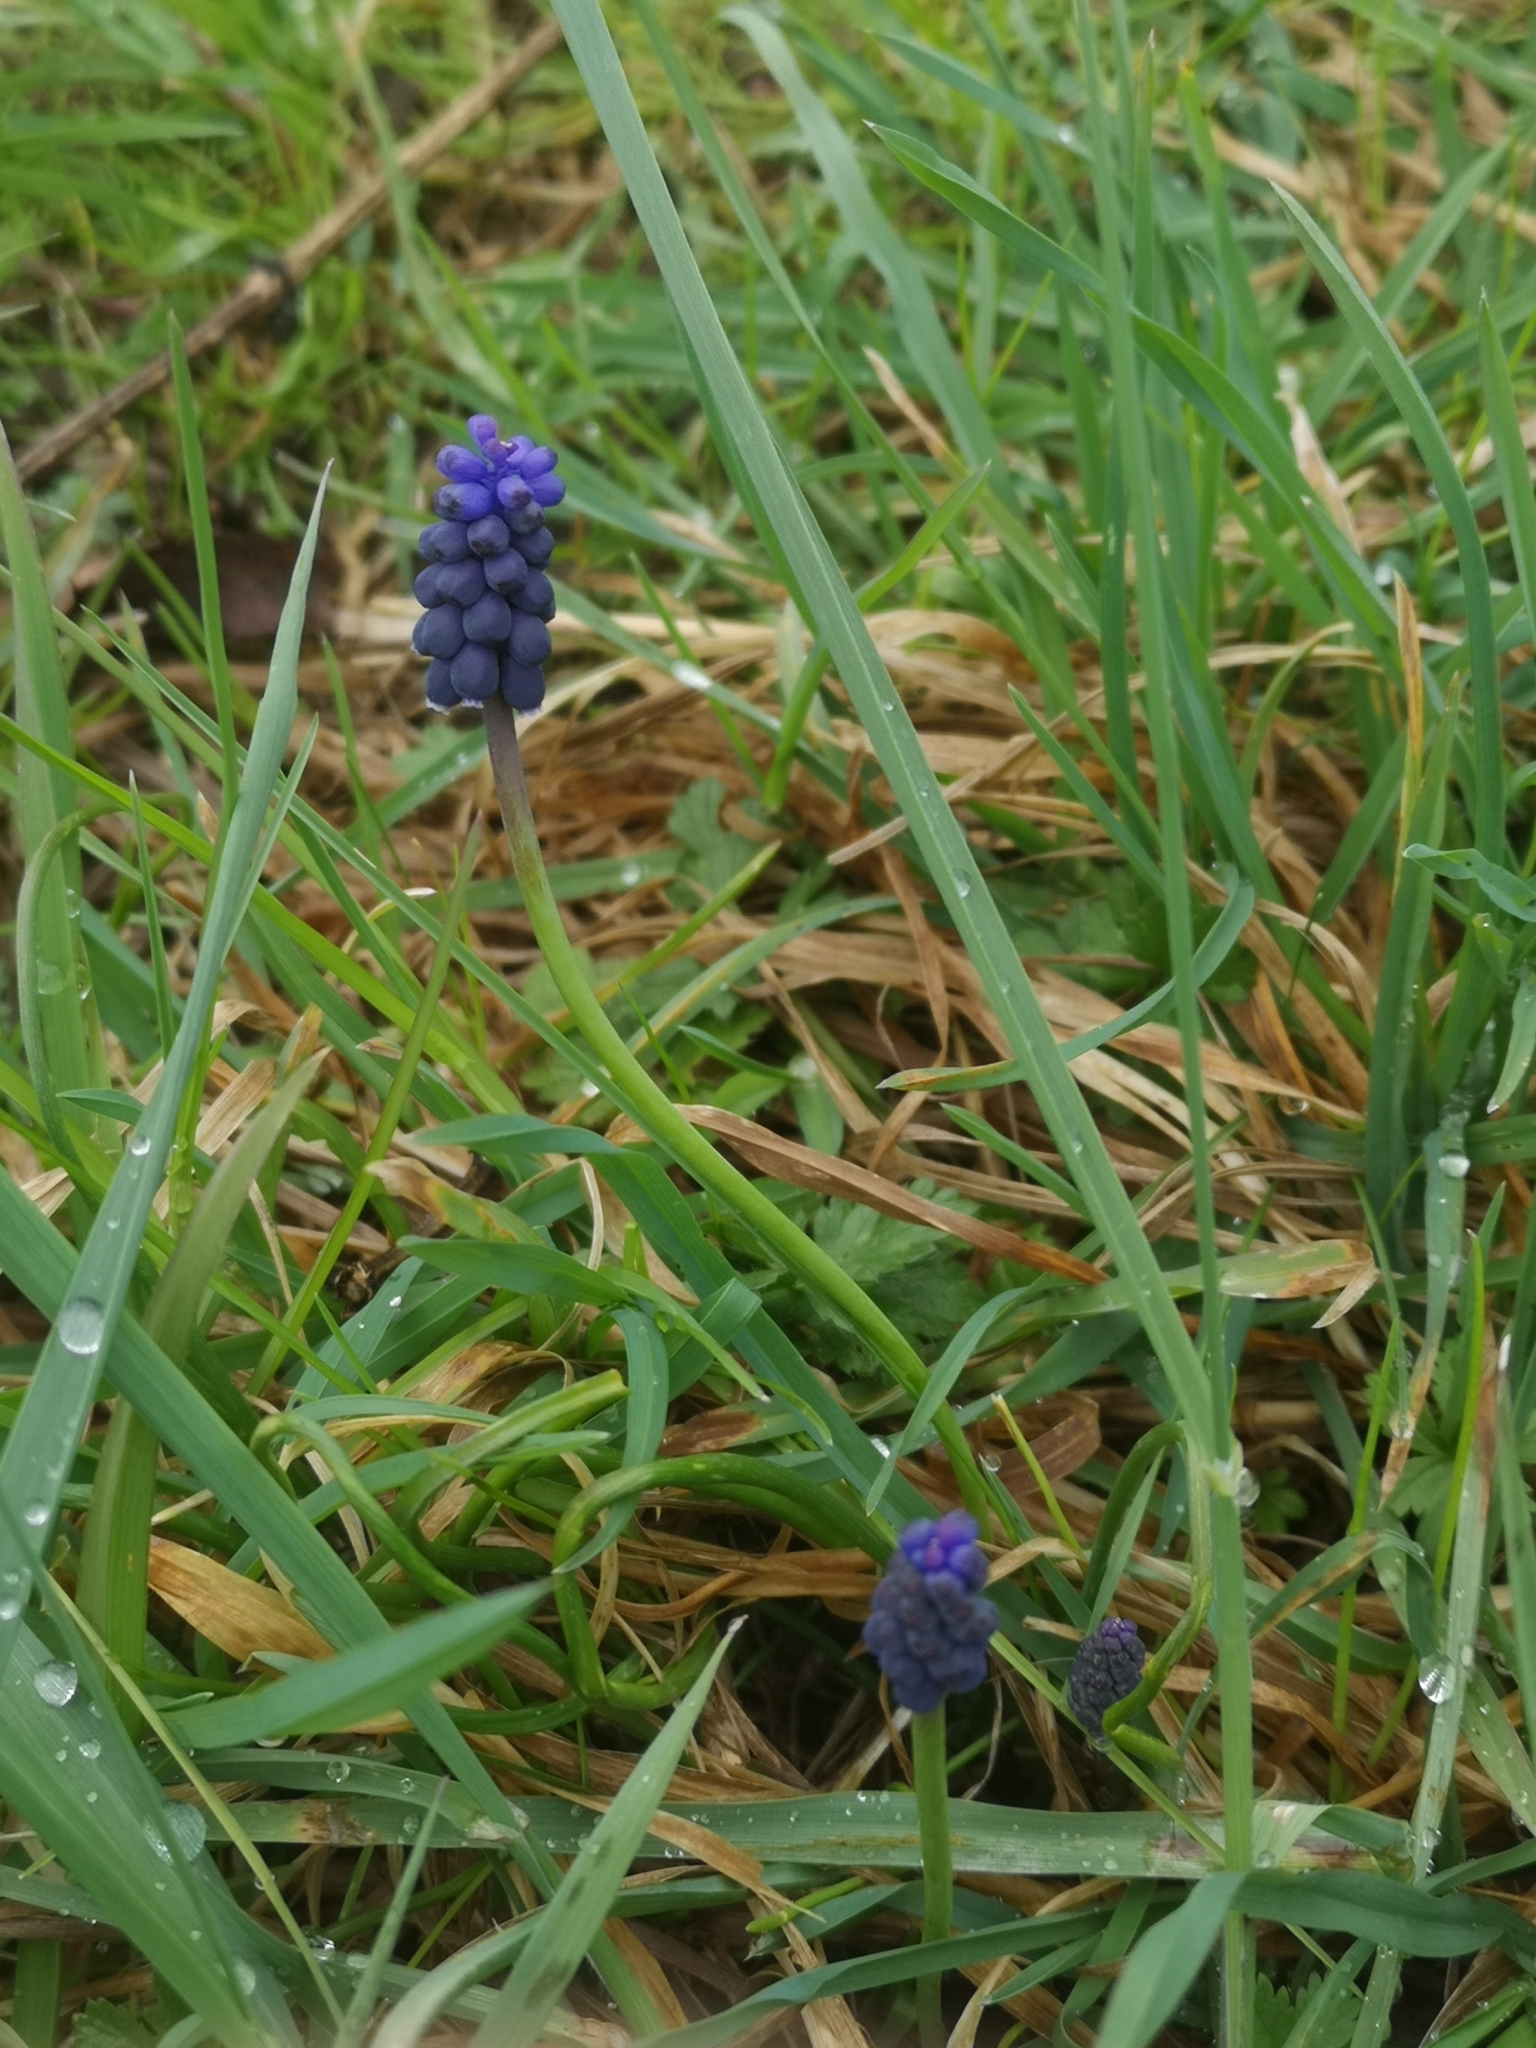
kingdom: Plantae
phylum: Tracheophyta
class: Liliopsida
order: Asparagales
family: Asparagaceae
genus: Muscari
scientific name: Muscari neglectum
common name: Grape-hyacinth
